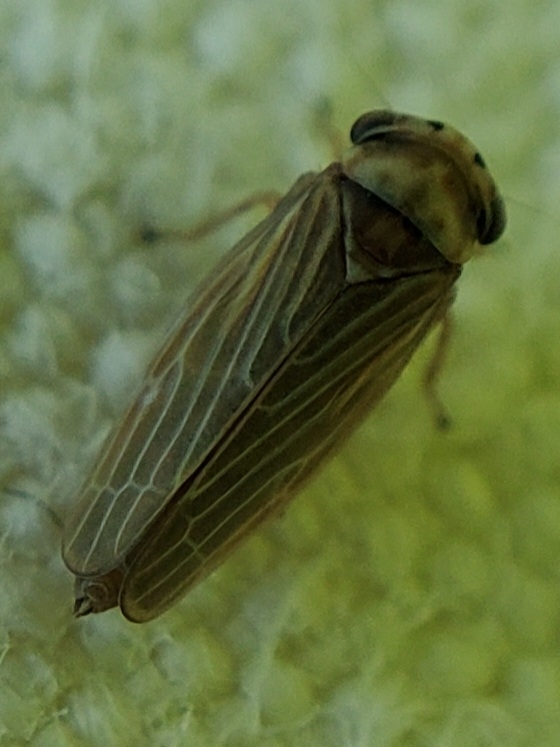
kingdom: Animalia
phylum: Arthropoda
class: Insecta
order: Hemiptera
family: Cicadellidae
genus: Agalliota
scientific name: Agalliota quadripunctata
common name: The four-spotted clover leafhopper
